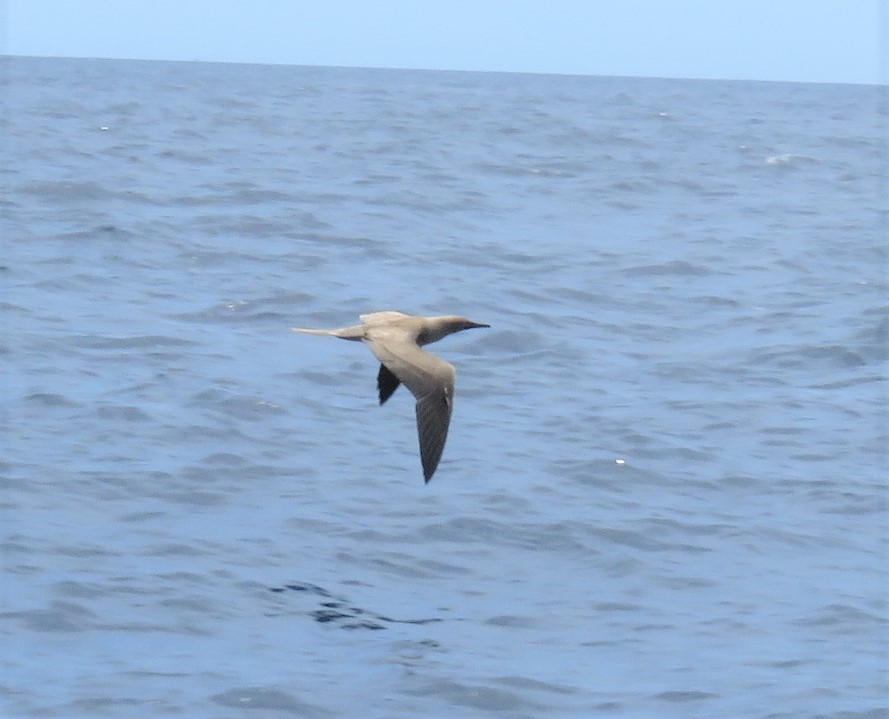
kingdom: Animalia
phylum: Chordata
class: Aves
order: Suliformes
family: Sulidae
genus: Sula
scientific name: Sula sula
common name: Red-footed booby
